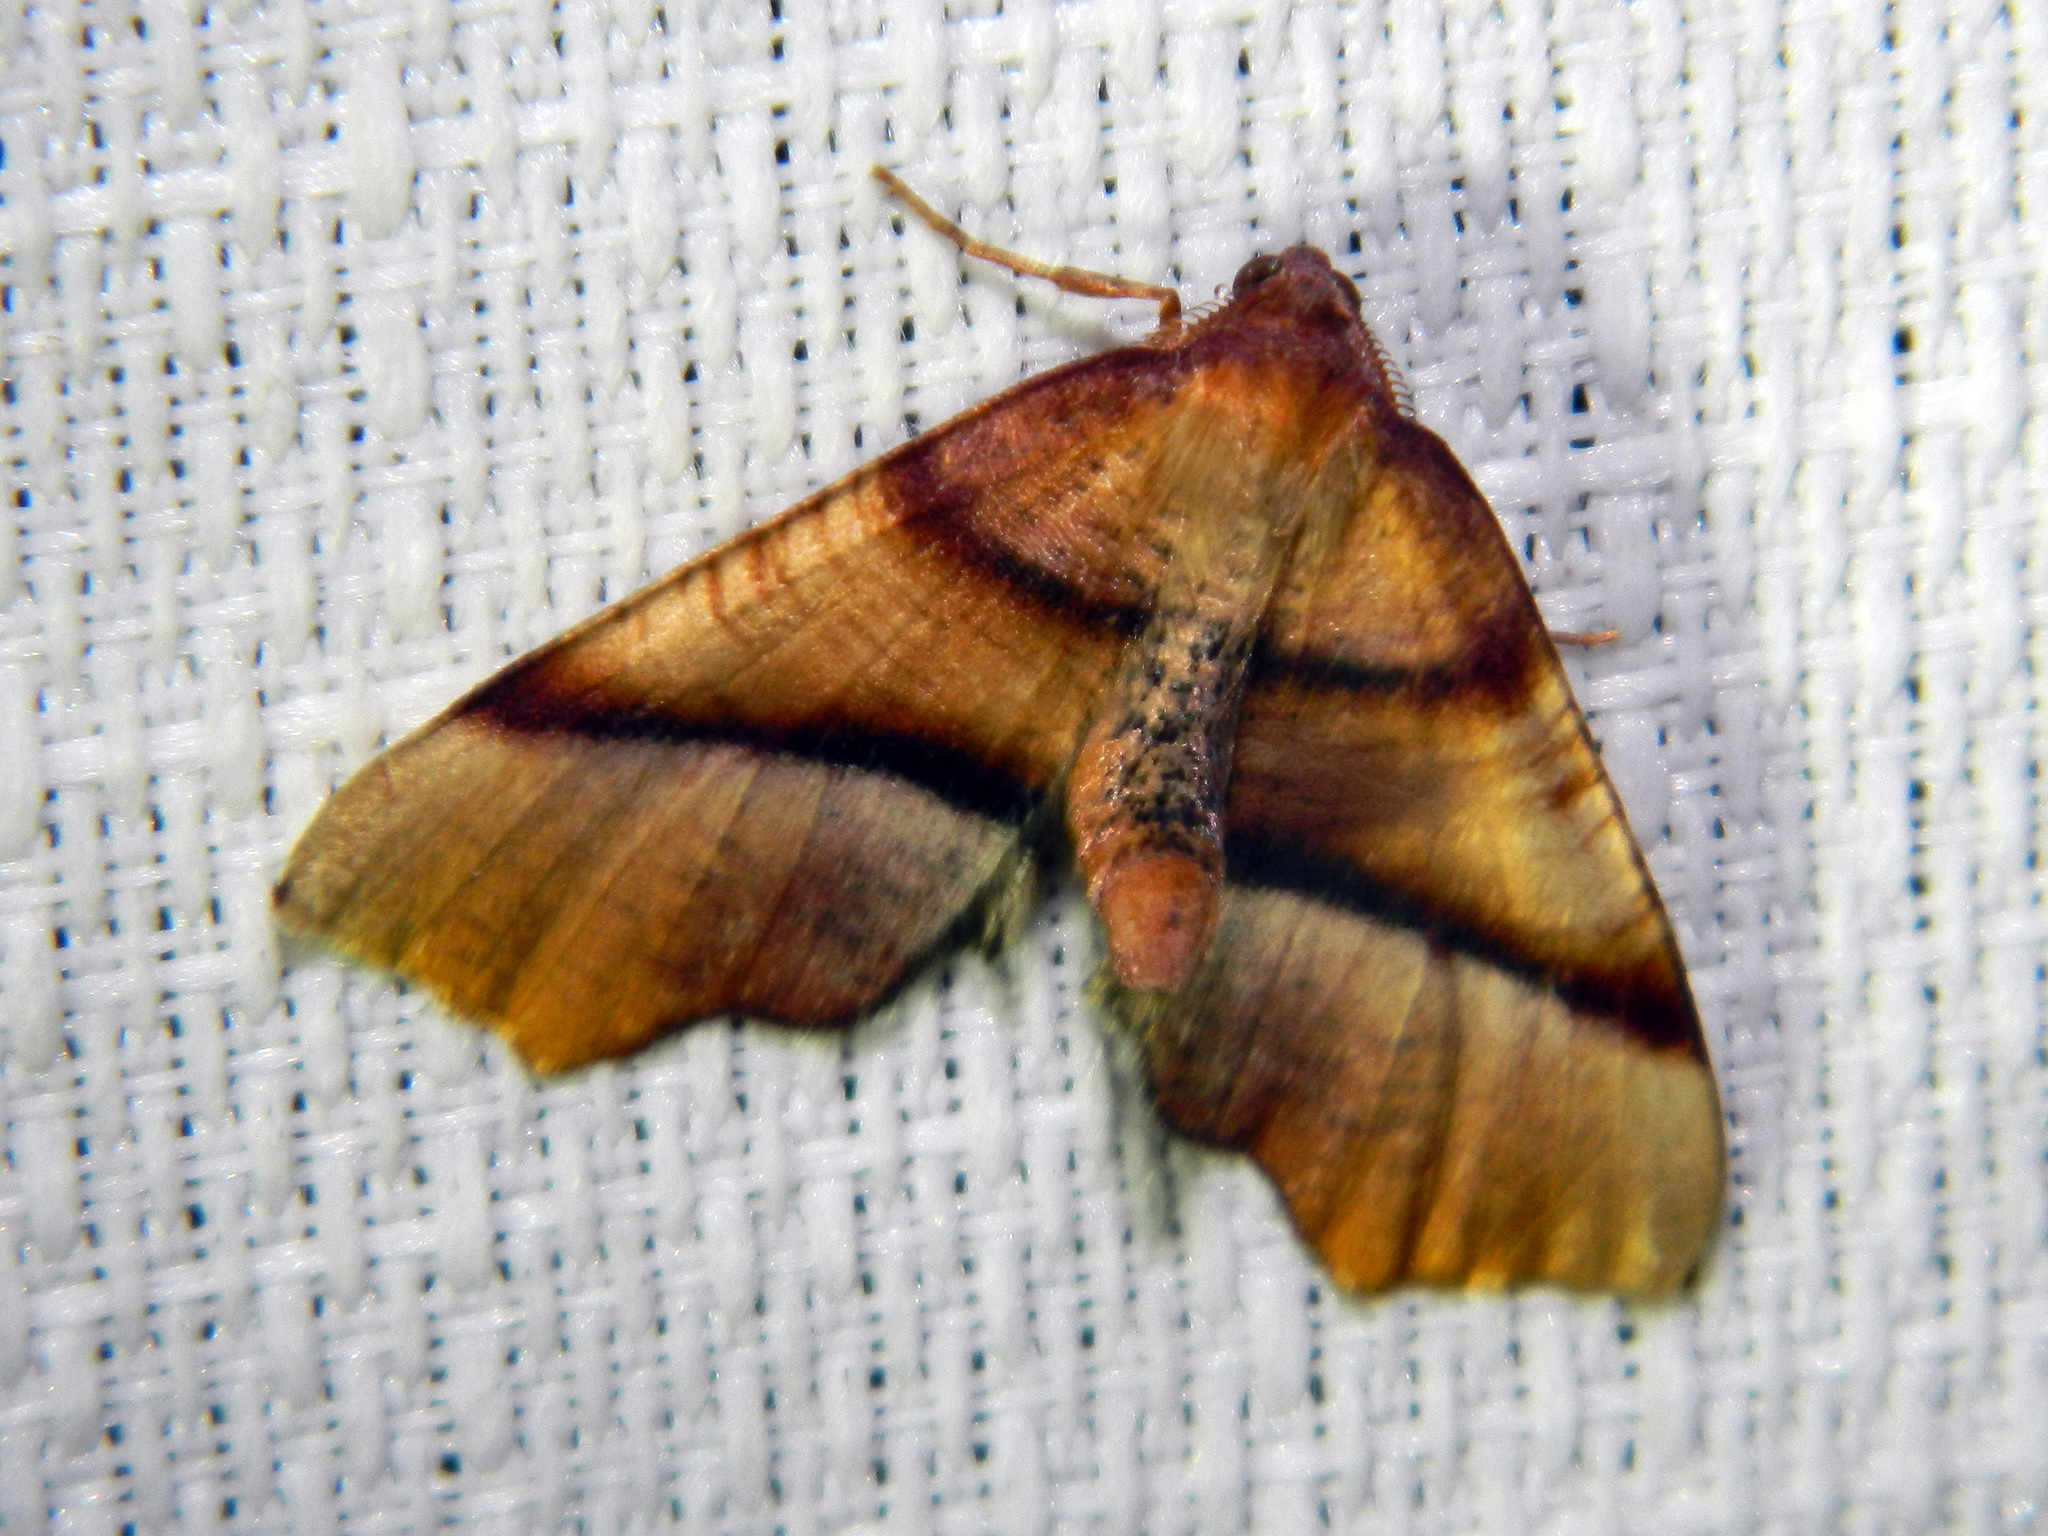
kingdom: Animalia
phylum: Arthropoda
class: Insecta
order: Lepidoptera
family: Geometridae
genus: Plagodis
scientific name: Plagodis phlogosaria
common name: Straight-lined plagodis
